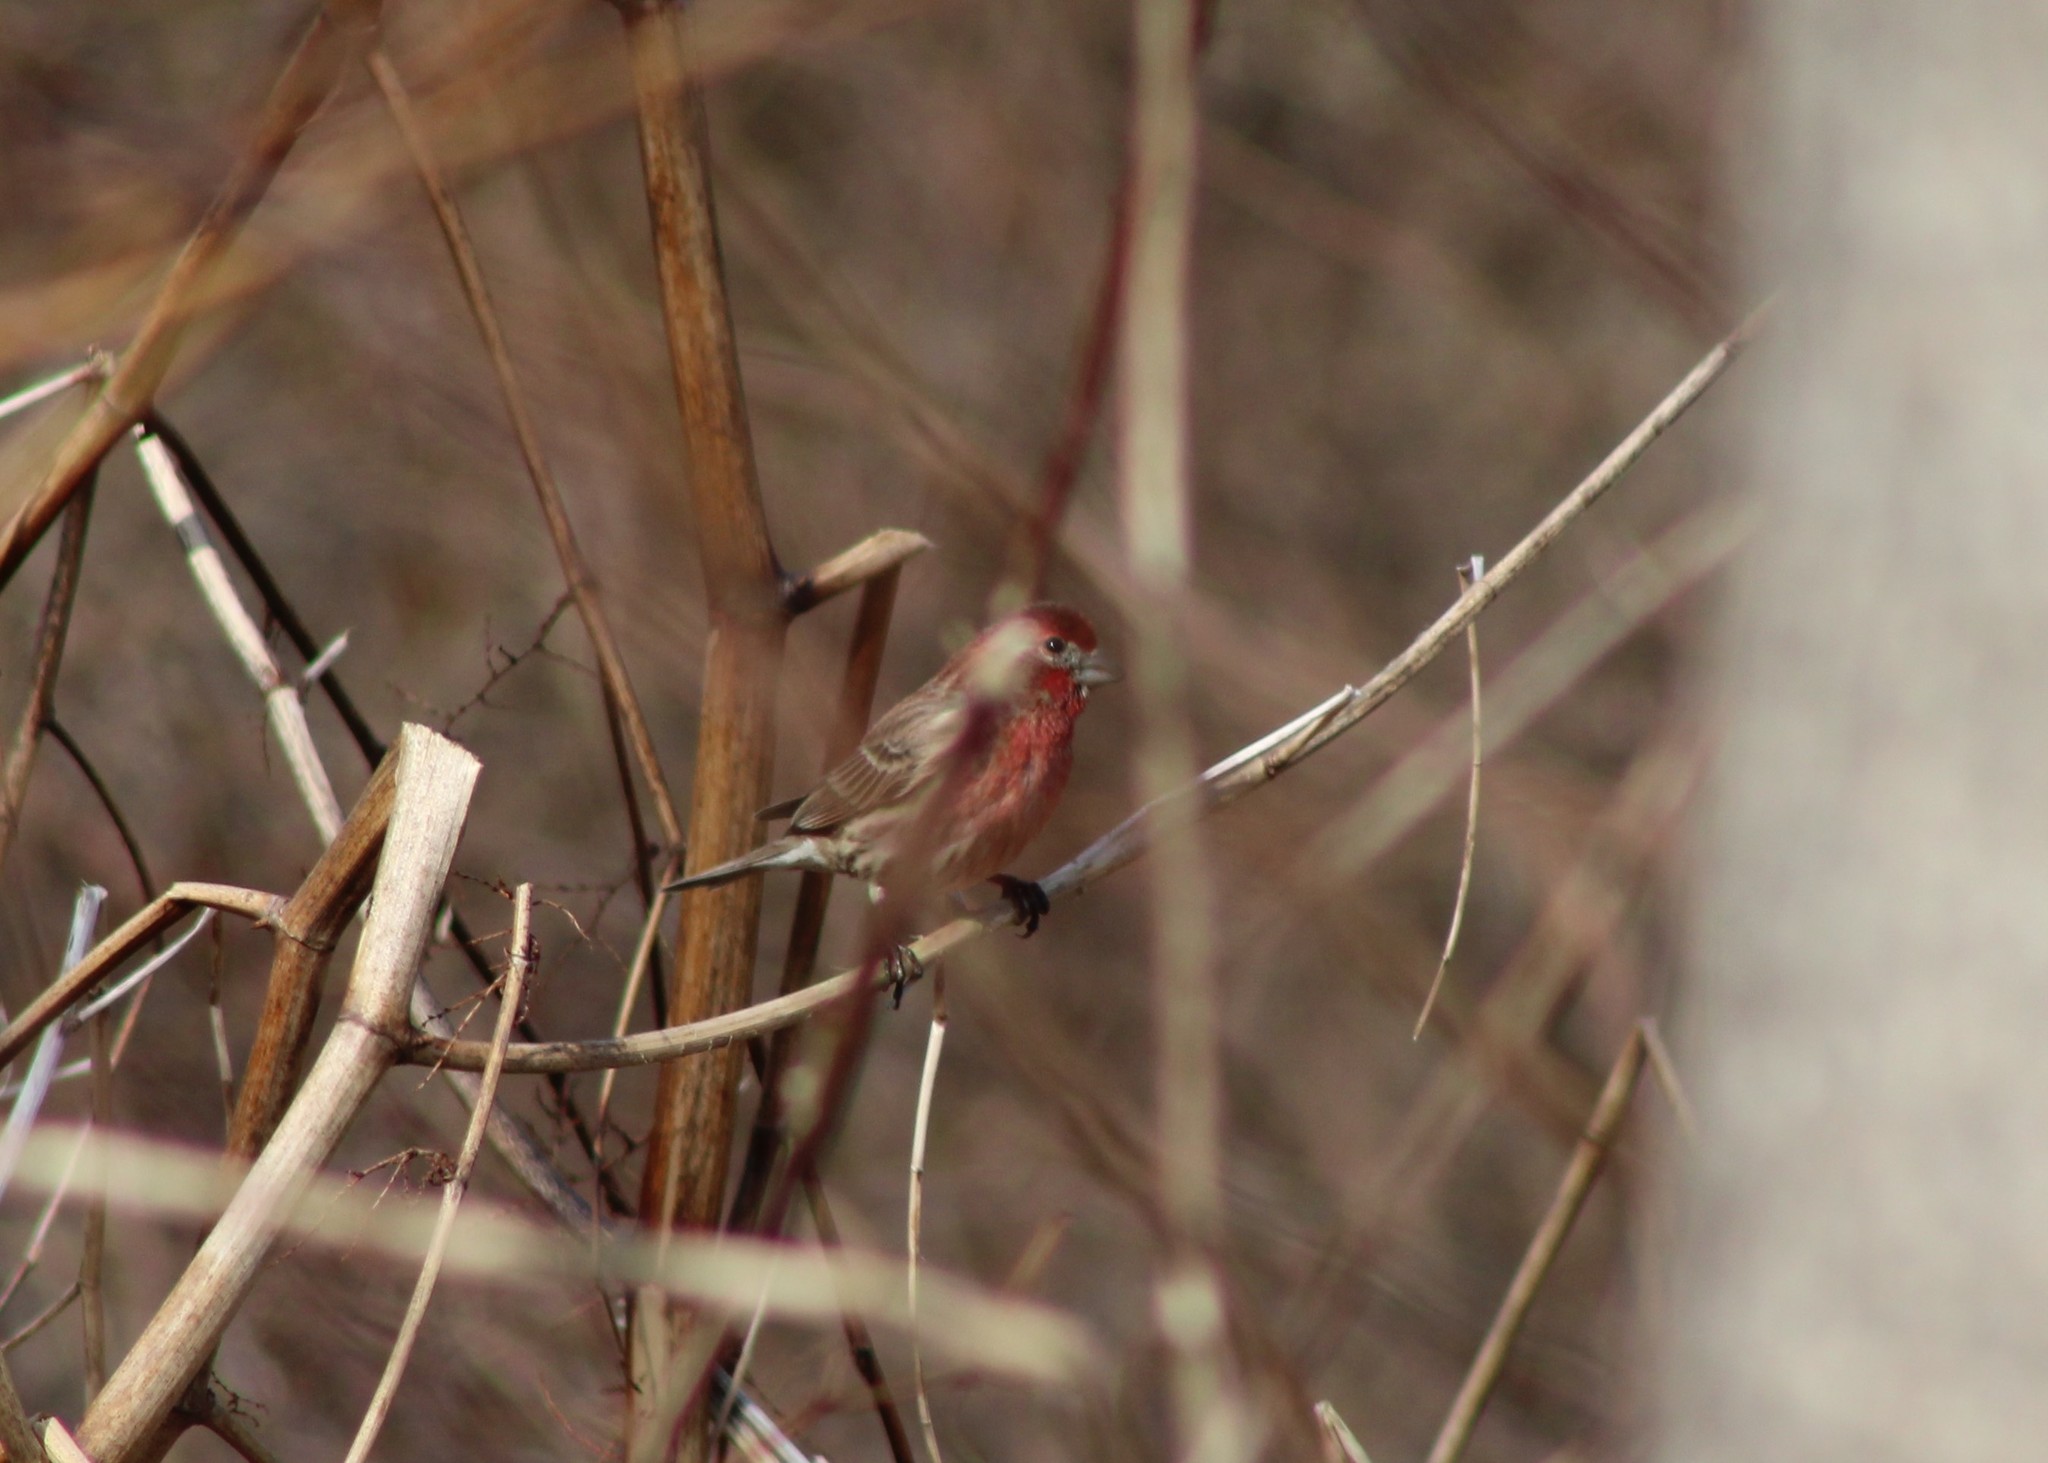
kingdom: Animalia
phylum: Chordata
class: Aves
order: Passeriformes
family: Fringillidae
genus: Haemorhous
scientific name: Haemorhous mexicanus
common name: House finch
